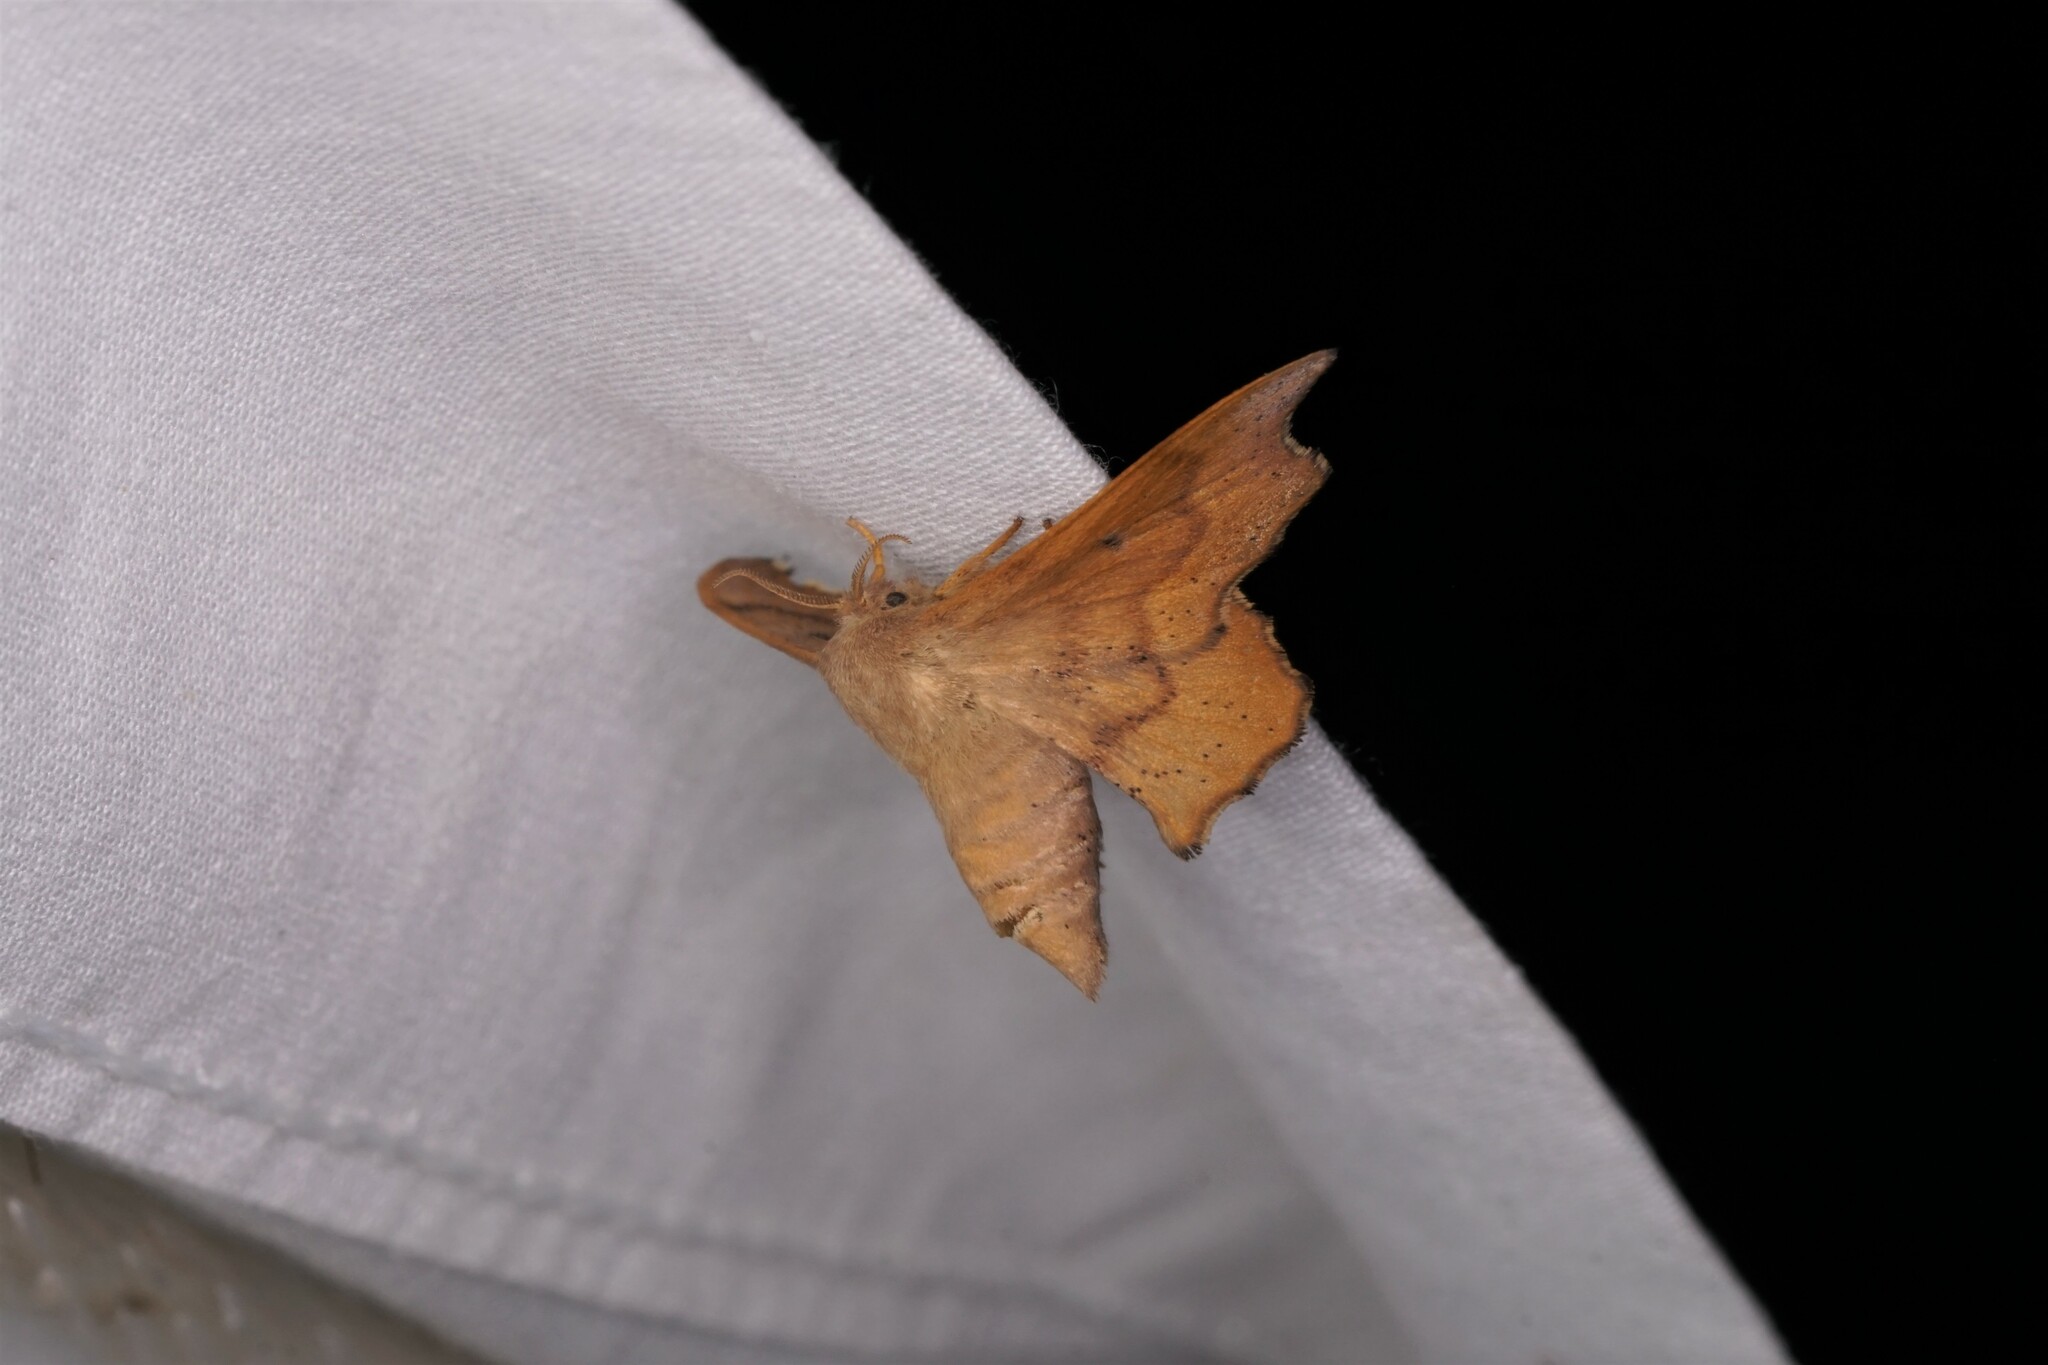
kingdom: Animalia
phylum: Arthropoda
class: Insecta
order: Lepidoptera
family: Mimallonidae
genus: Lacosoma
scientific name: Lacosoma chiridota
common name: Scalloped sack-bearer moth
